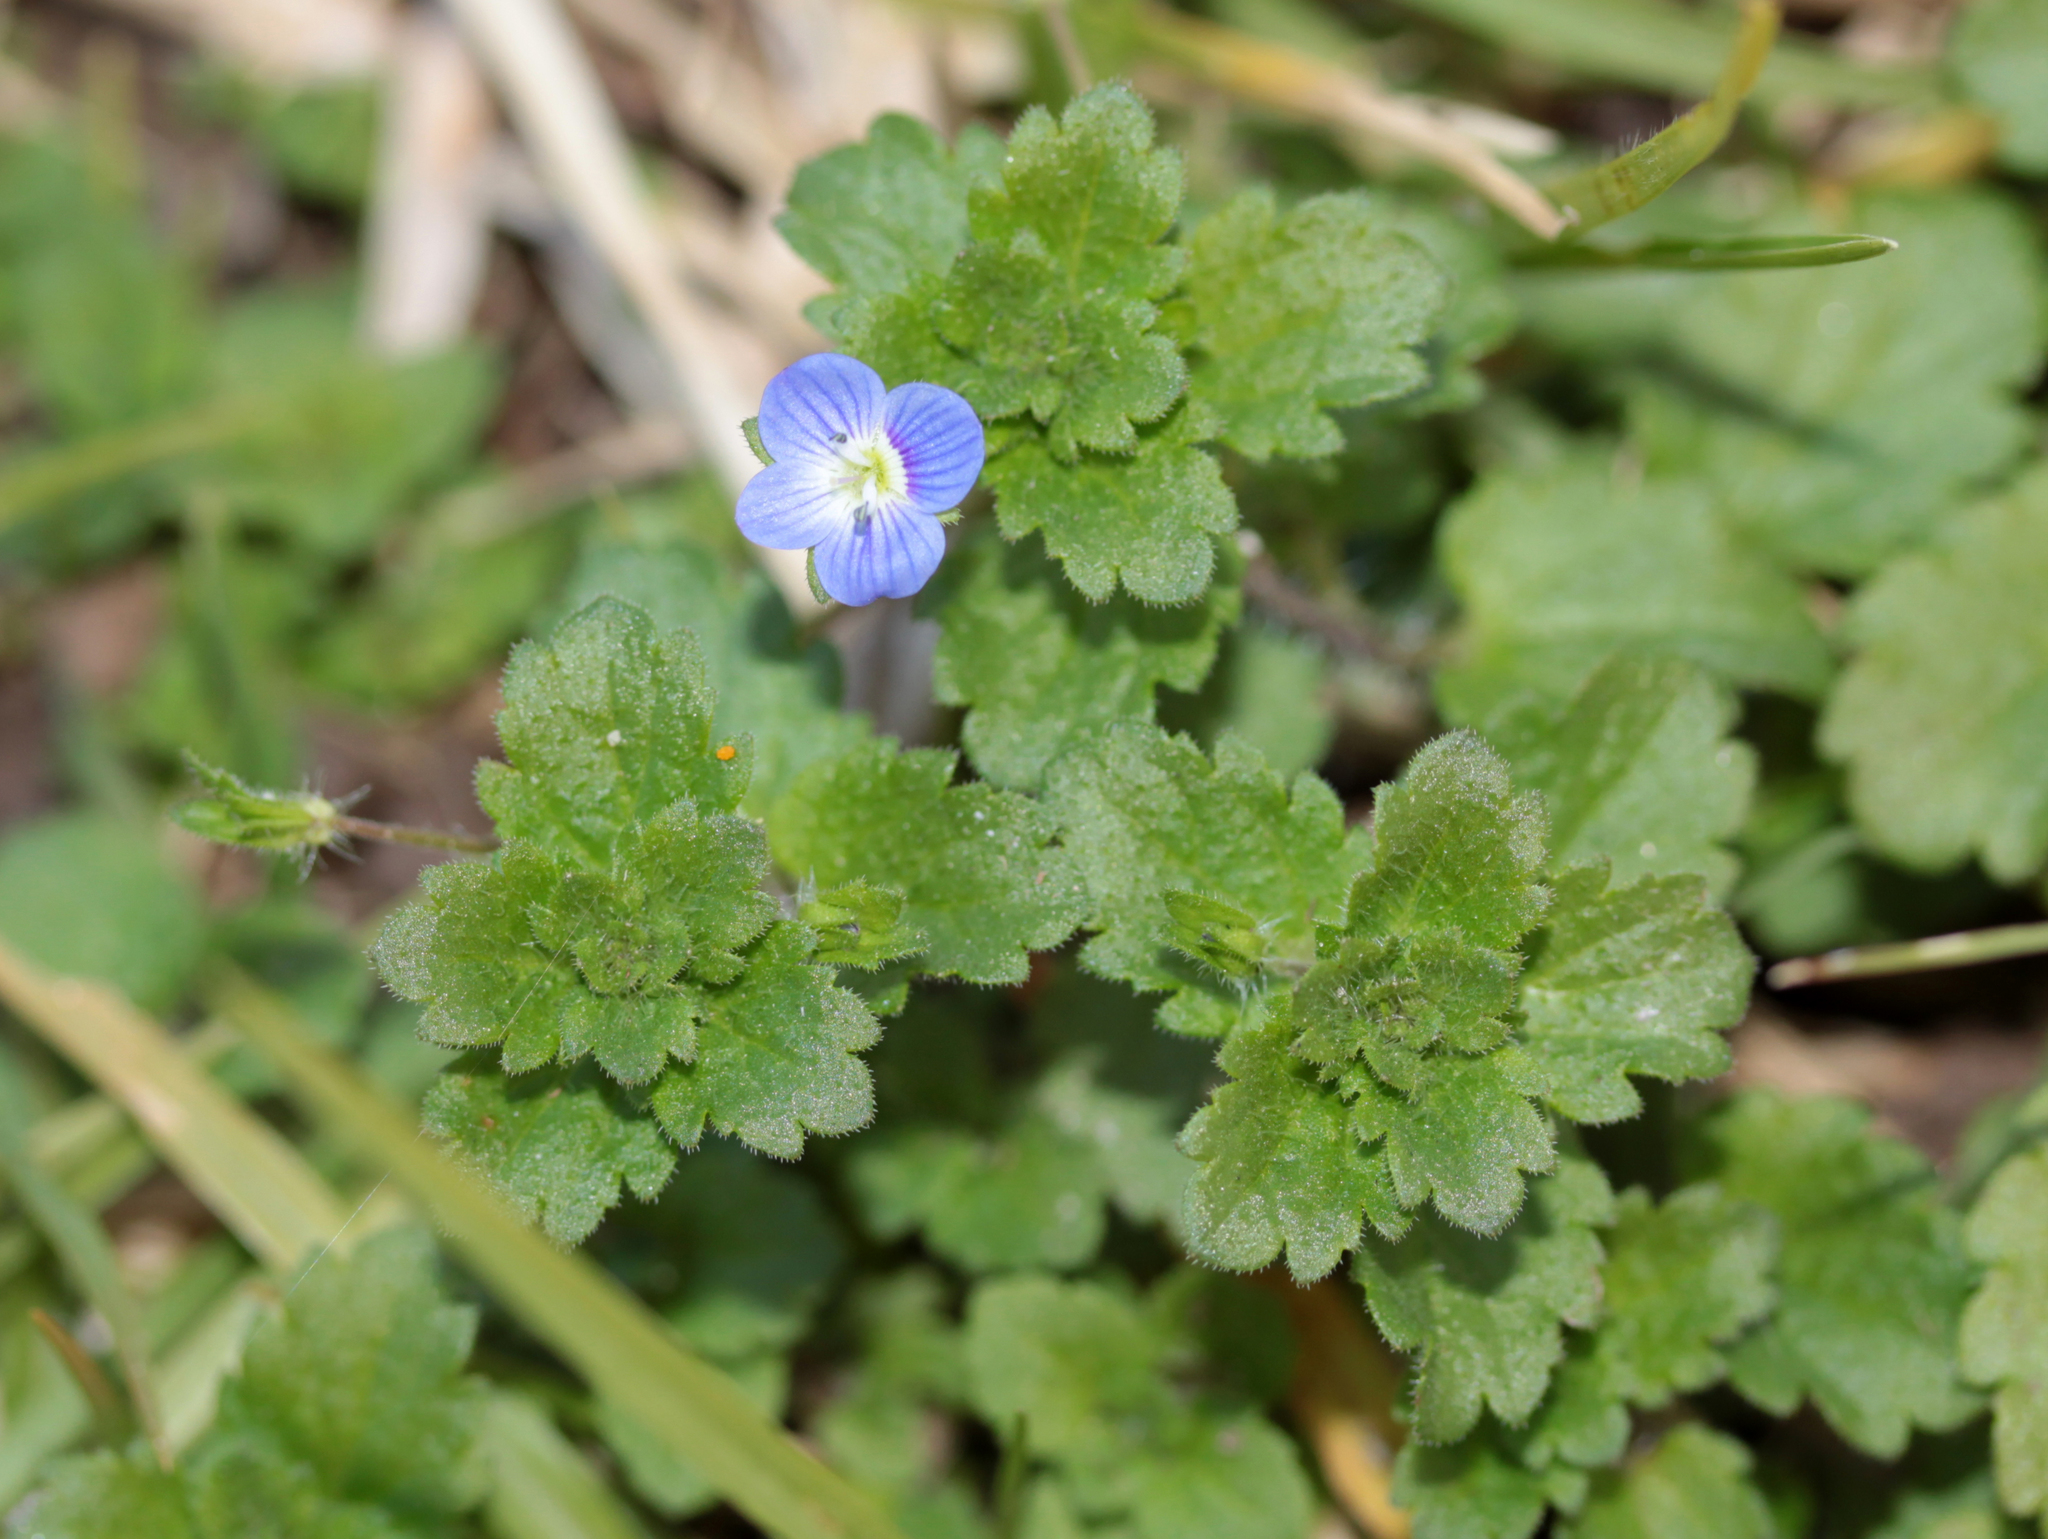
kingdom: Plantae
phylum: Tracheophyta
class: Magnoliopsida
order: Lamiales
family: Plantaginaceae
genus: Veronica
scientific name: Veronica persica
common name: Common field-speedwell
